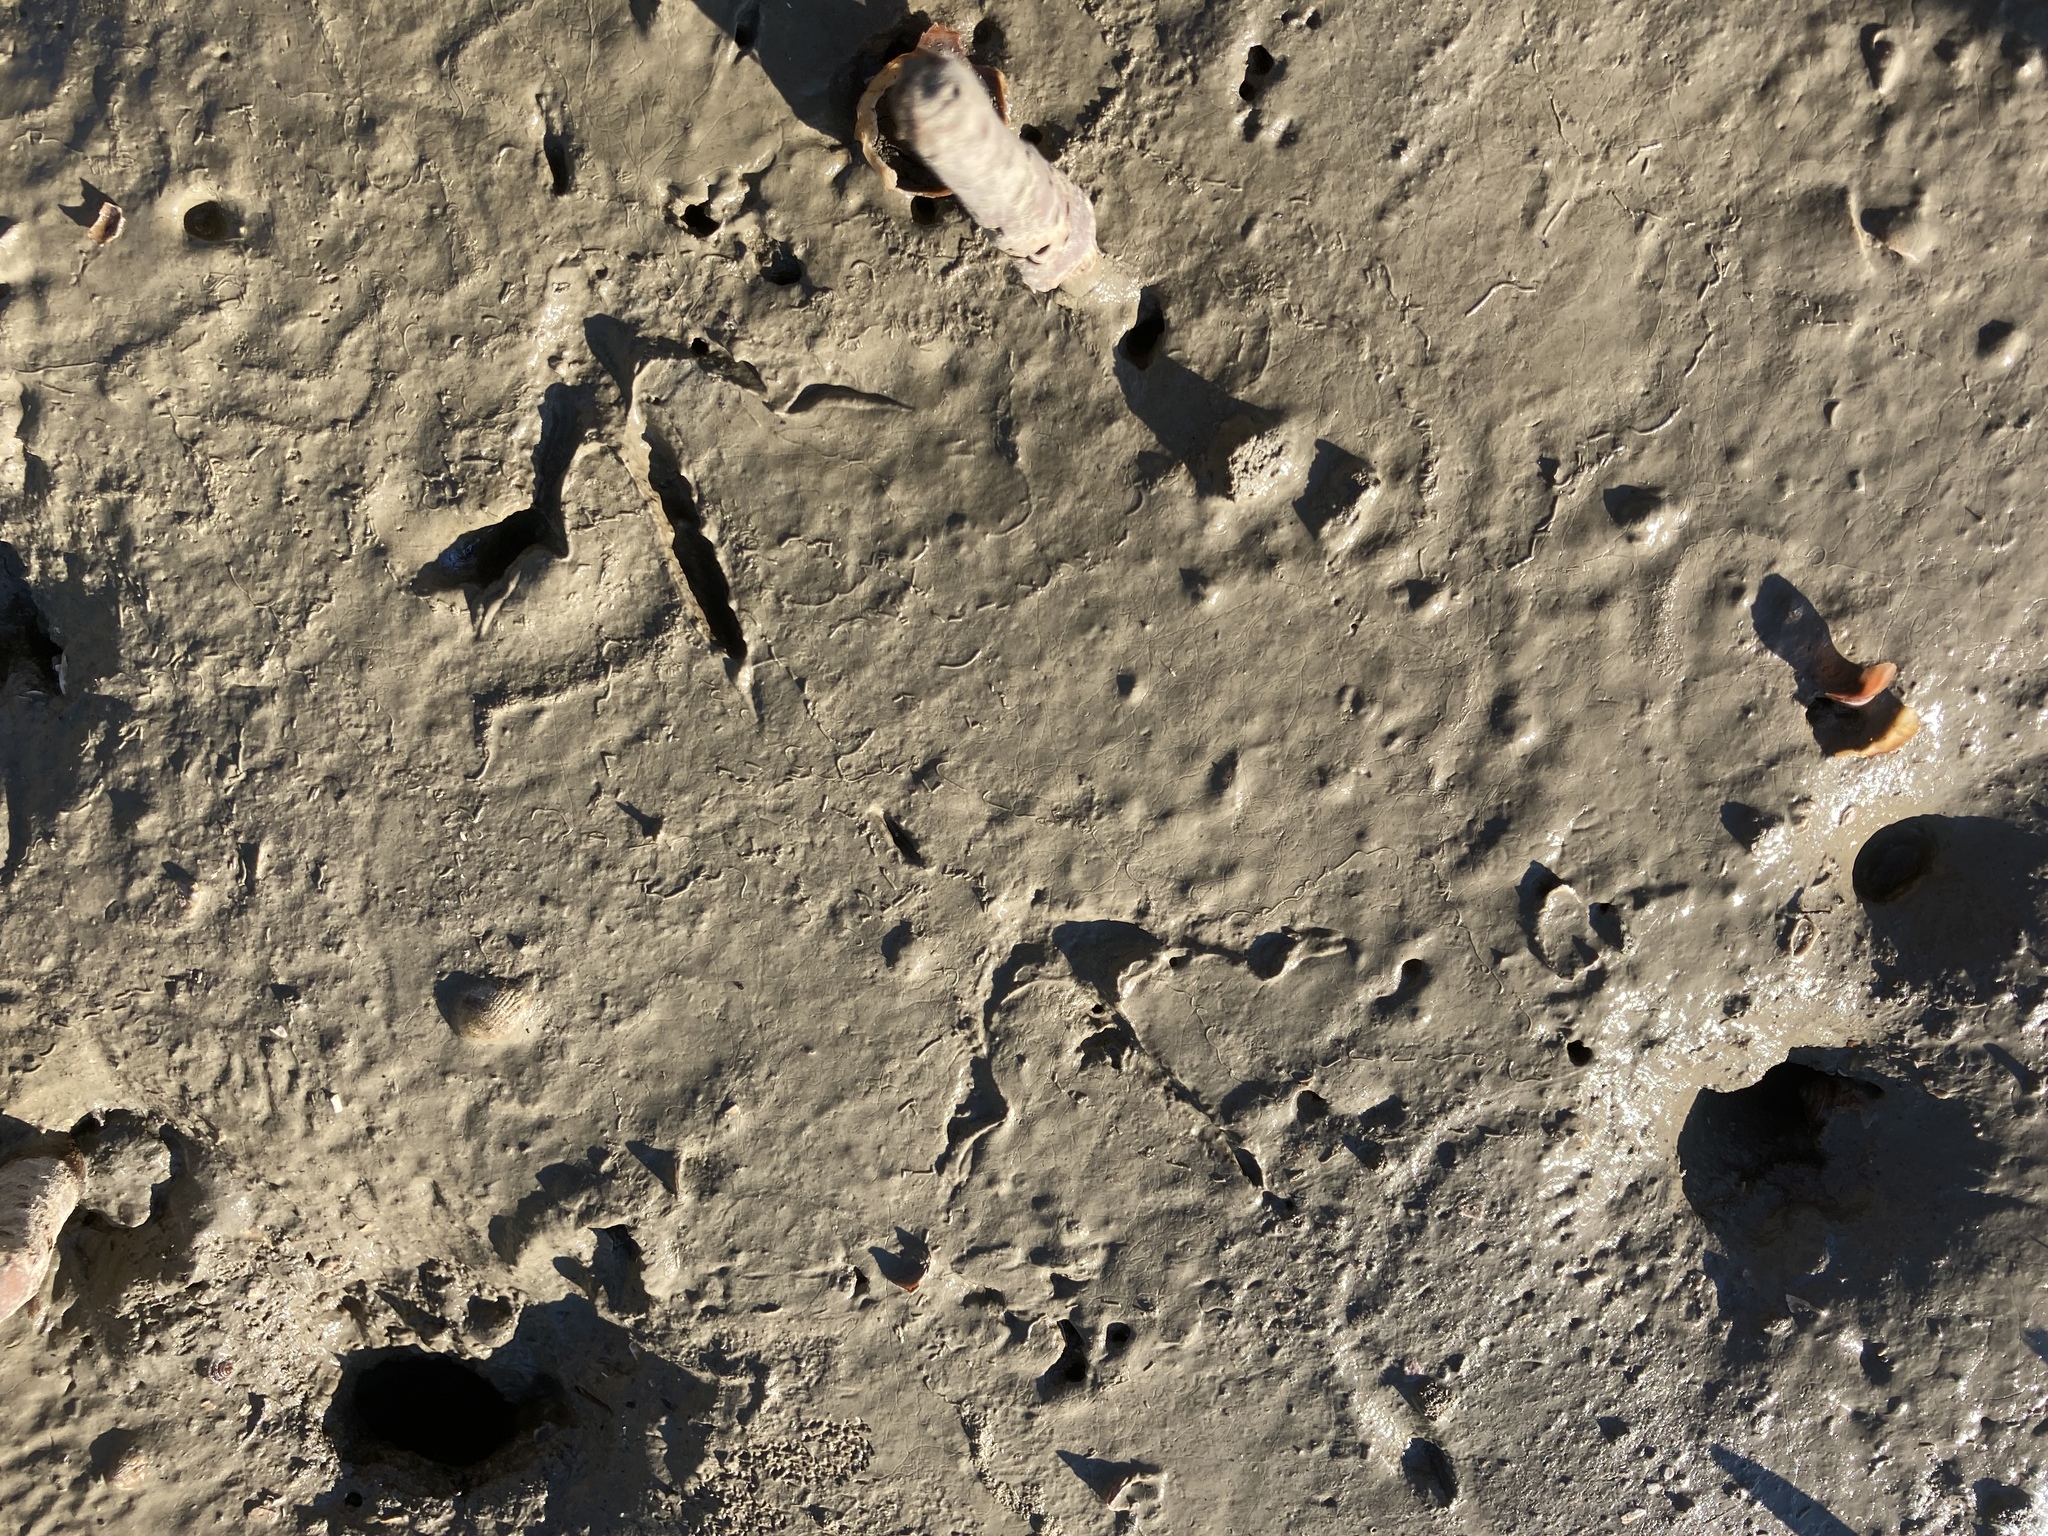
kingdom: Animalia
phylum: Chordata
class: Aves
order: Gruiformes
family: Rallidae
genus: Gallirallus
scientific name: Gallirallus philippensis
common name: Buff-banded rail
